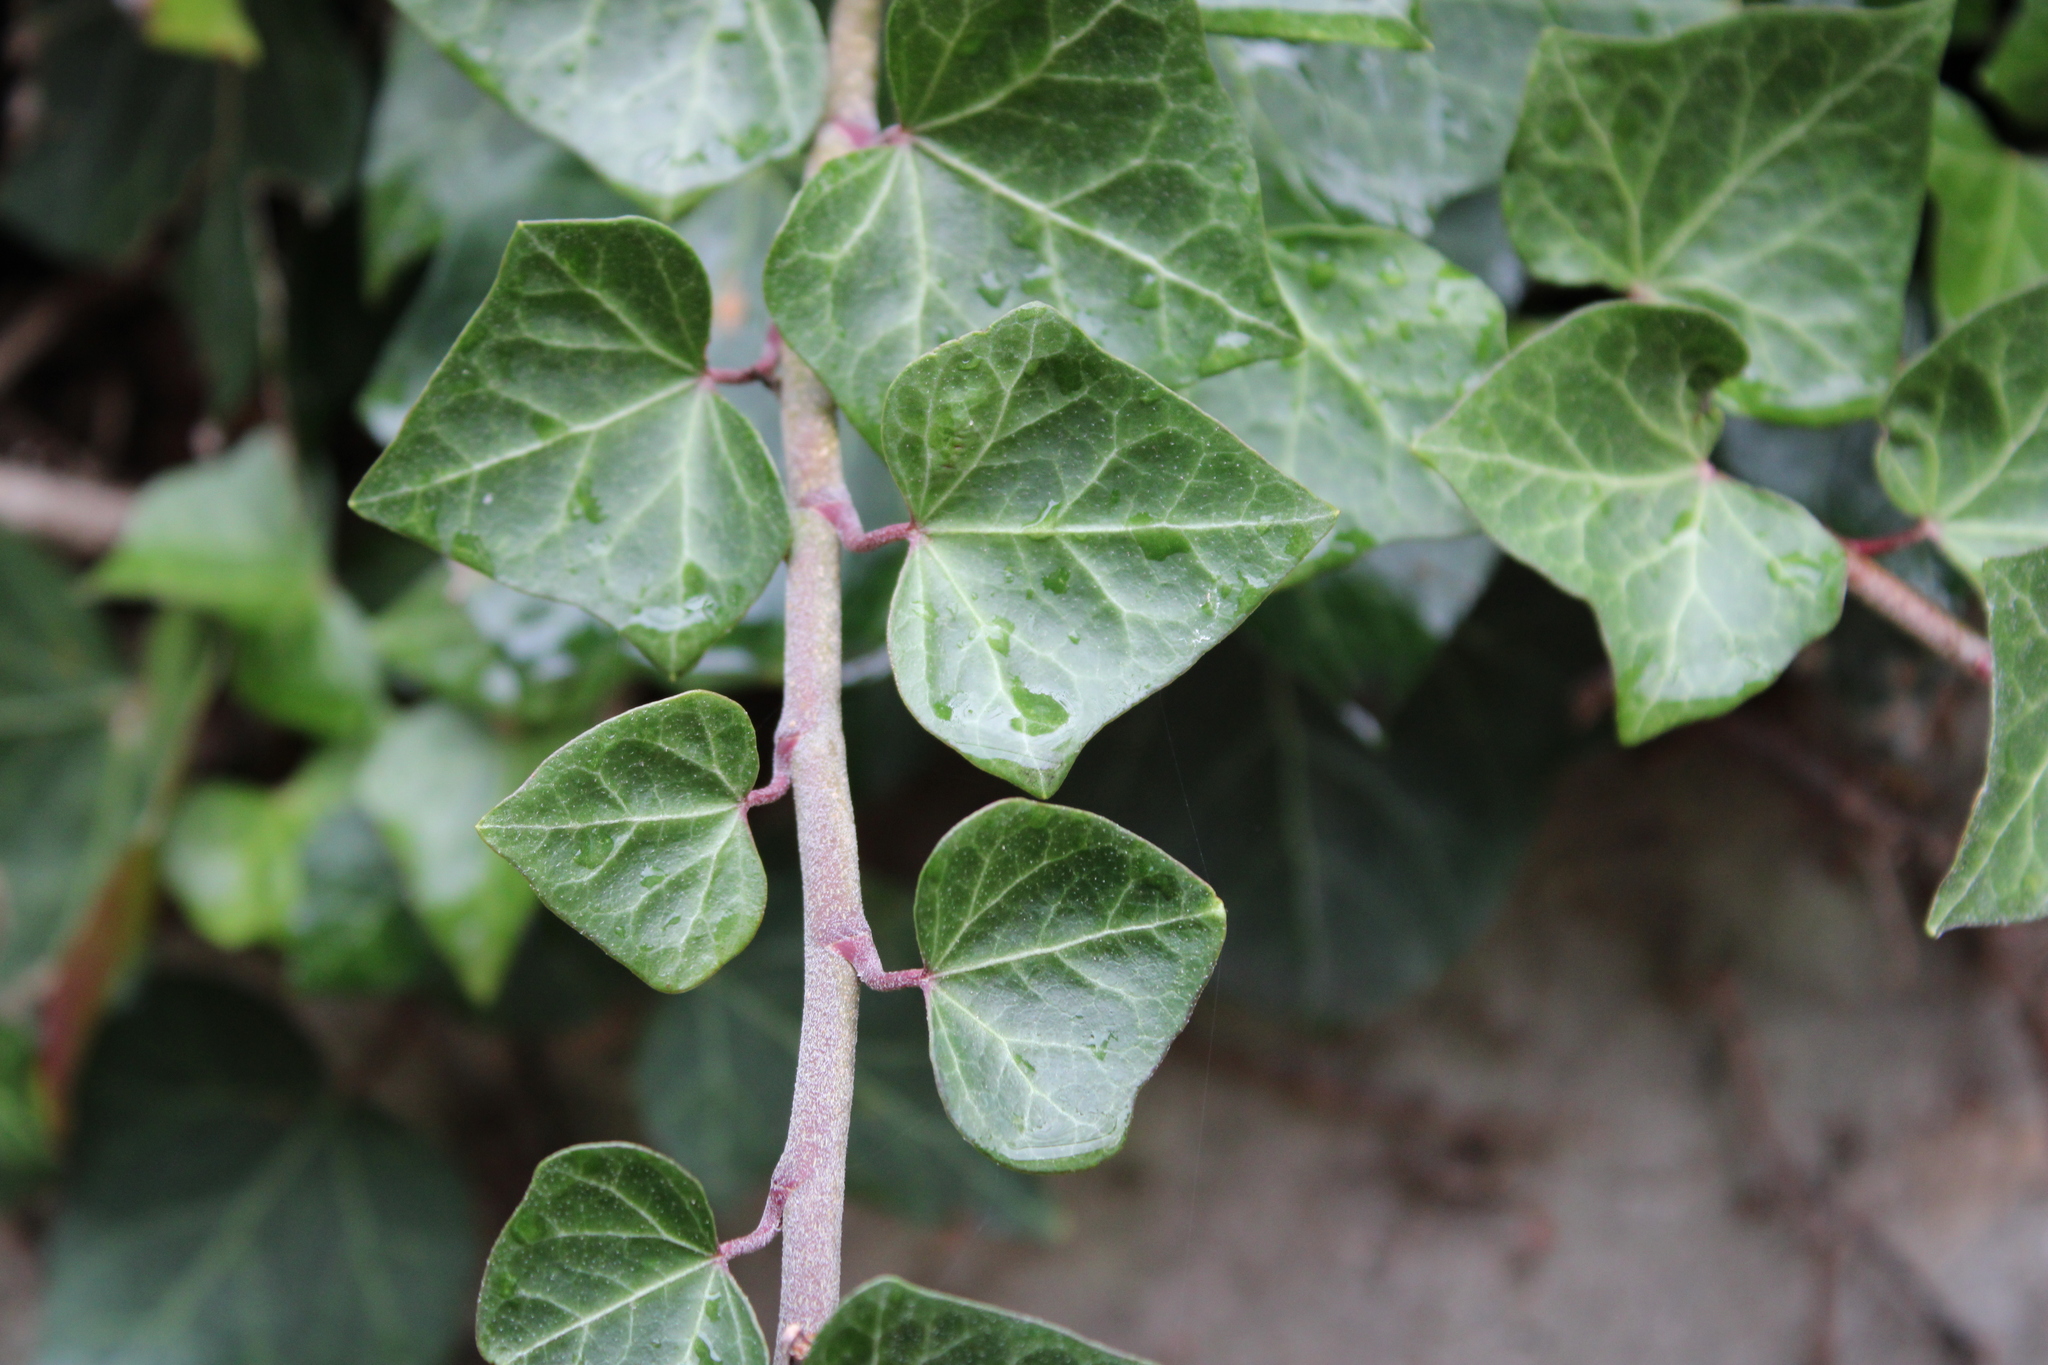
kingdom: Plantae
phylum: Tracheophyta
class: Magnoliopsida
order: Apiales
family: Araliaceae
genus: Hedera
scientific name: Hedera helix
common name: Ivy
